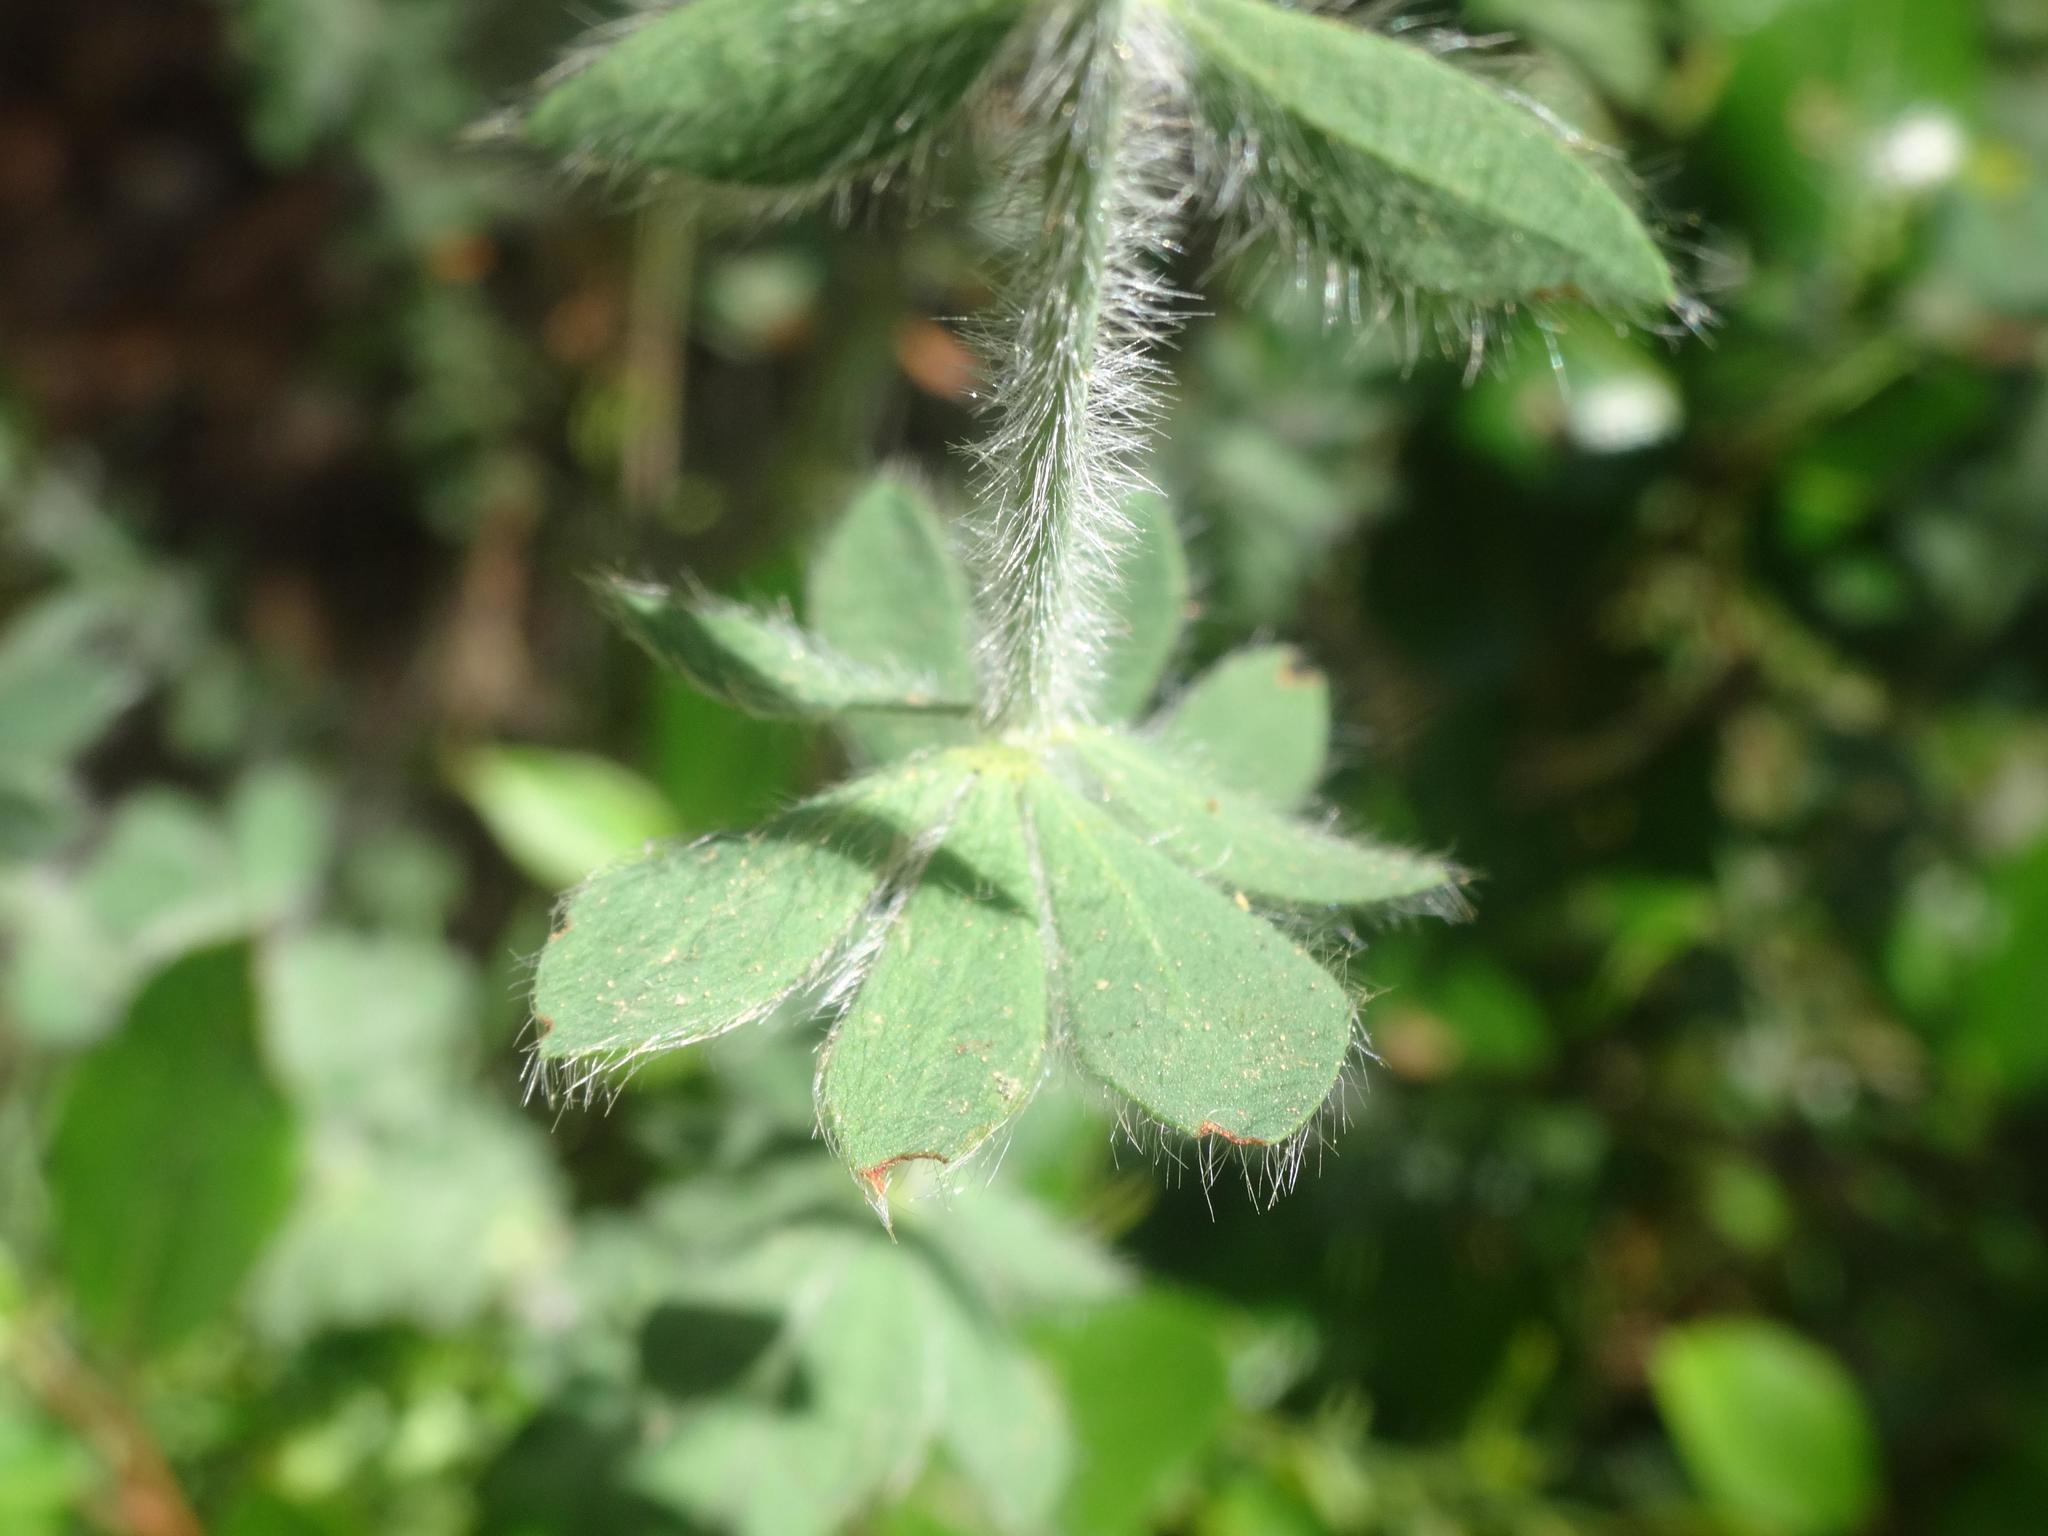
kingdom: Plantae
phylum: Tracheophyta
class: Magnoliopsida
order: Fabales
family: Fabaceae
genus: Lotus
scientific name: Lotus hirsutus
